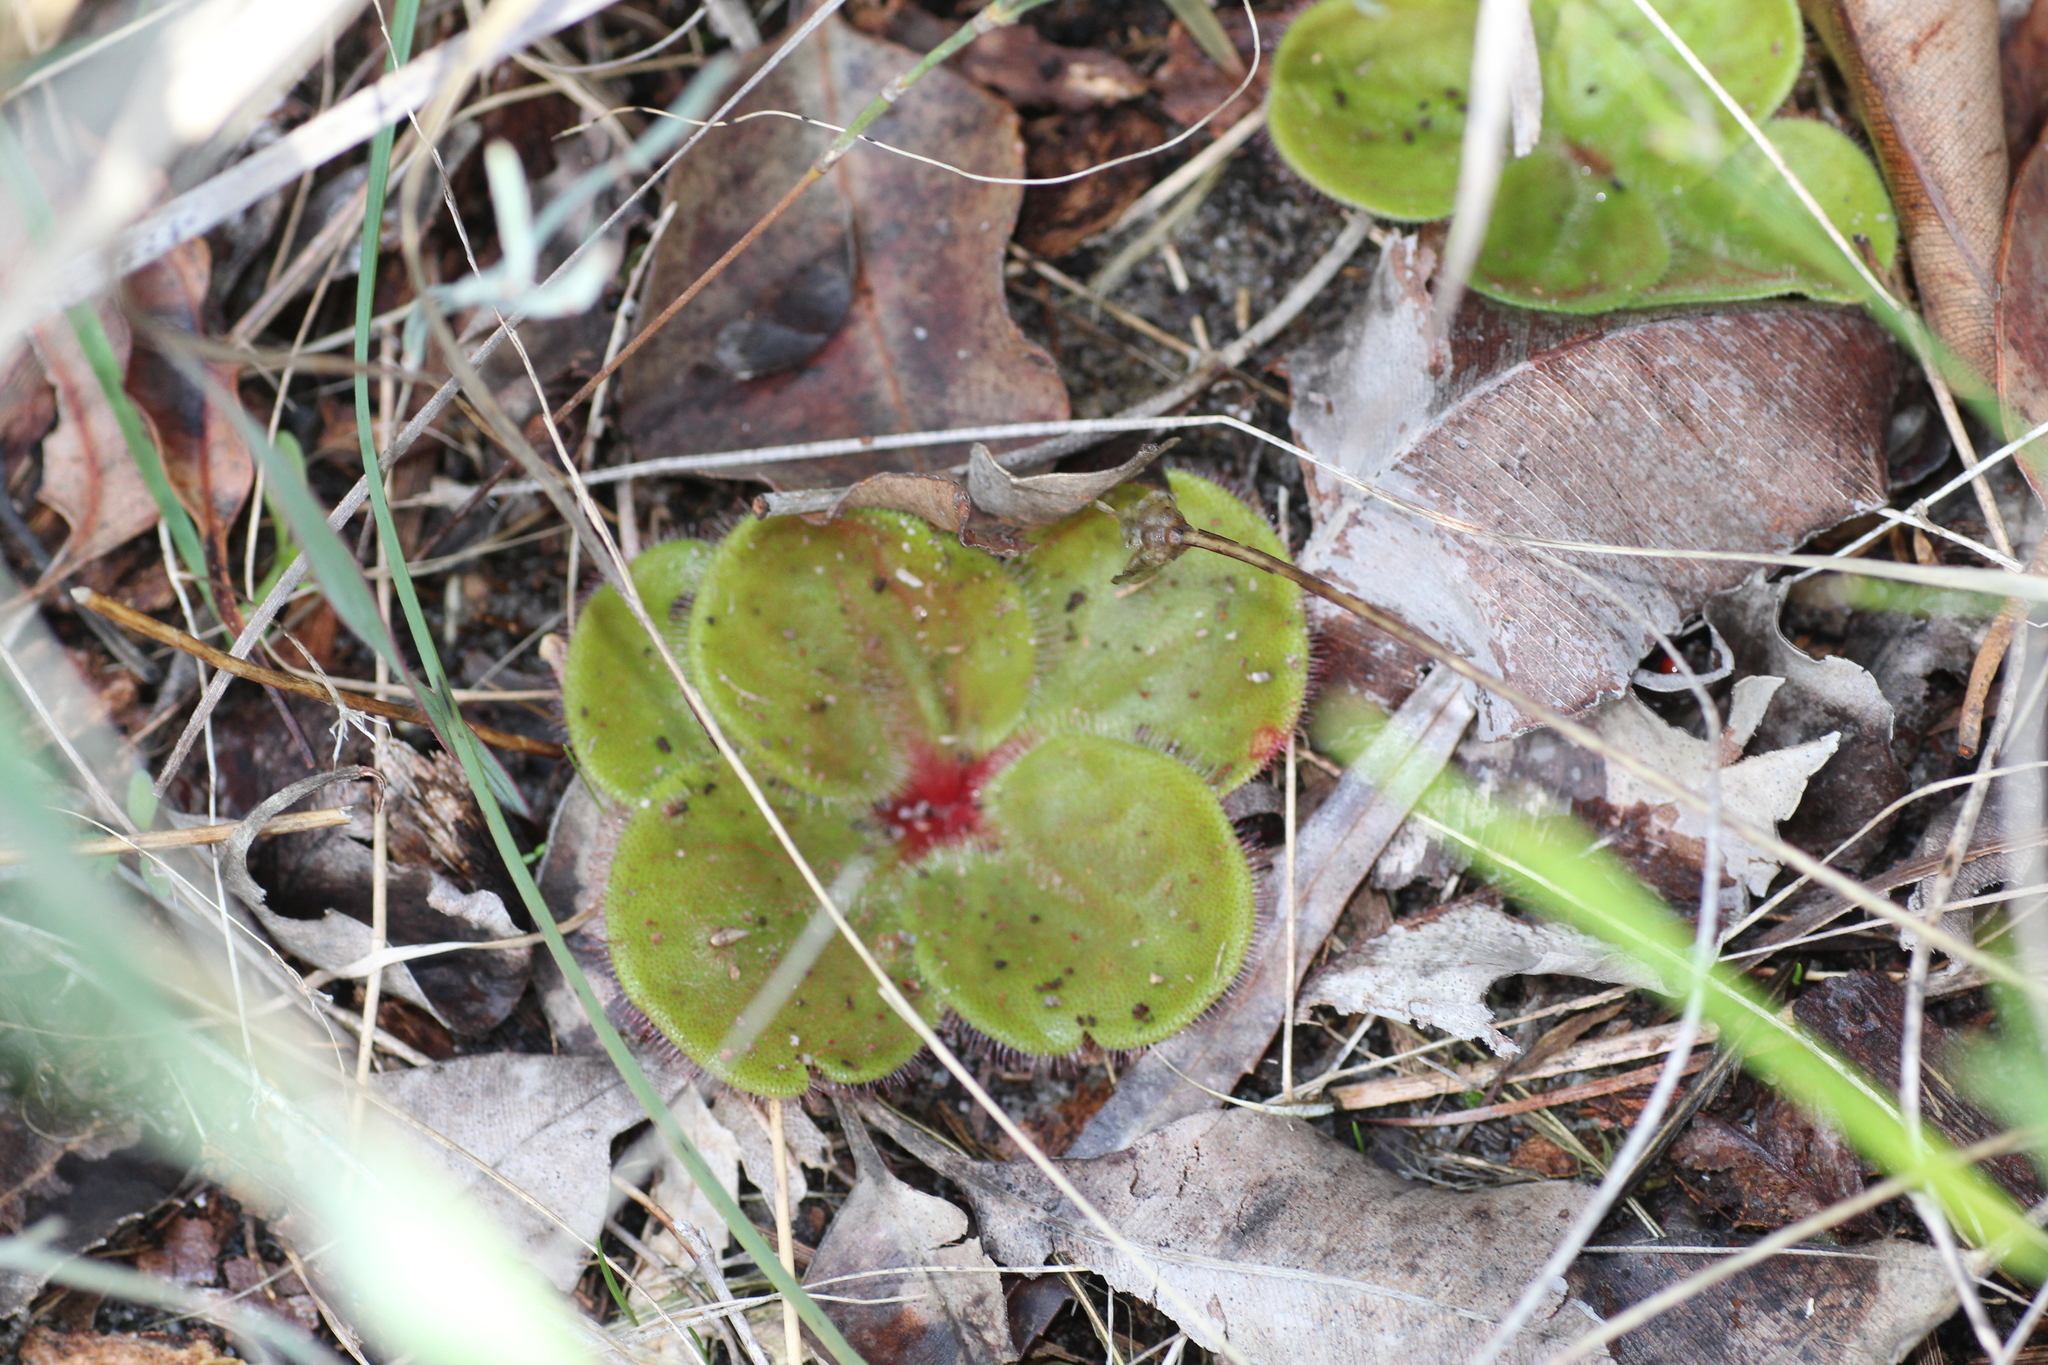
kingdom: Plantae
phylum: Tracheophyta
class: Magnoliopsida
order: Caryophyllales
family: Droseraceae
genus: Drosera
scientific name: Drosera erythrorhiza
